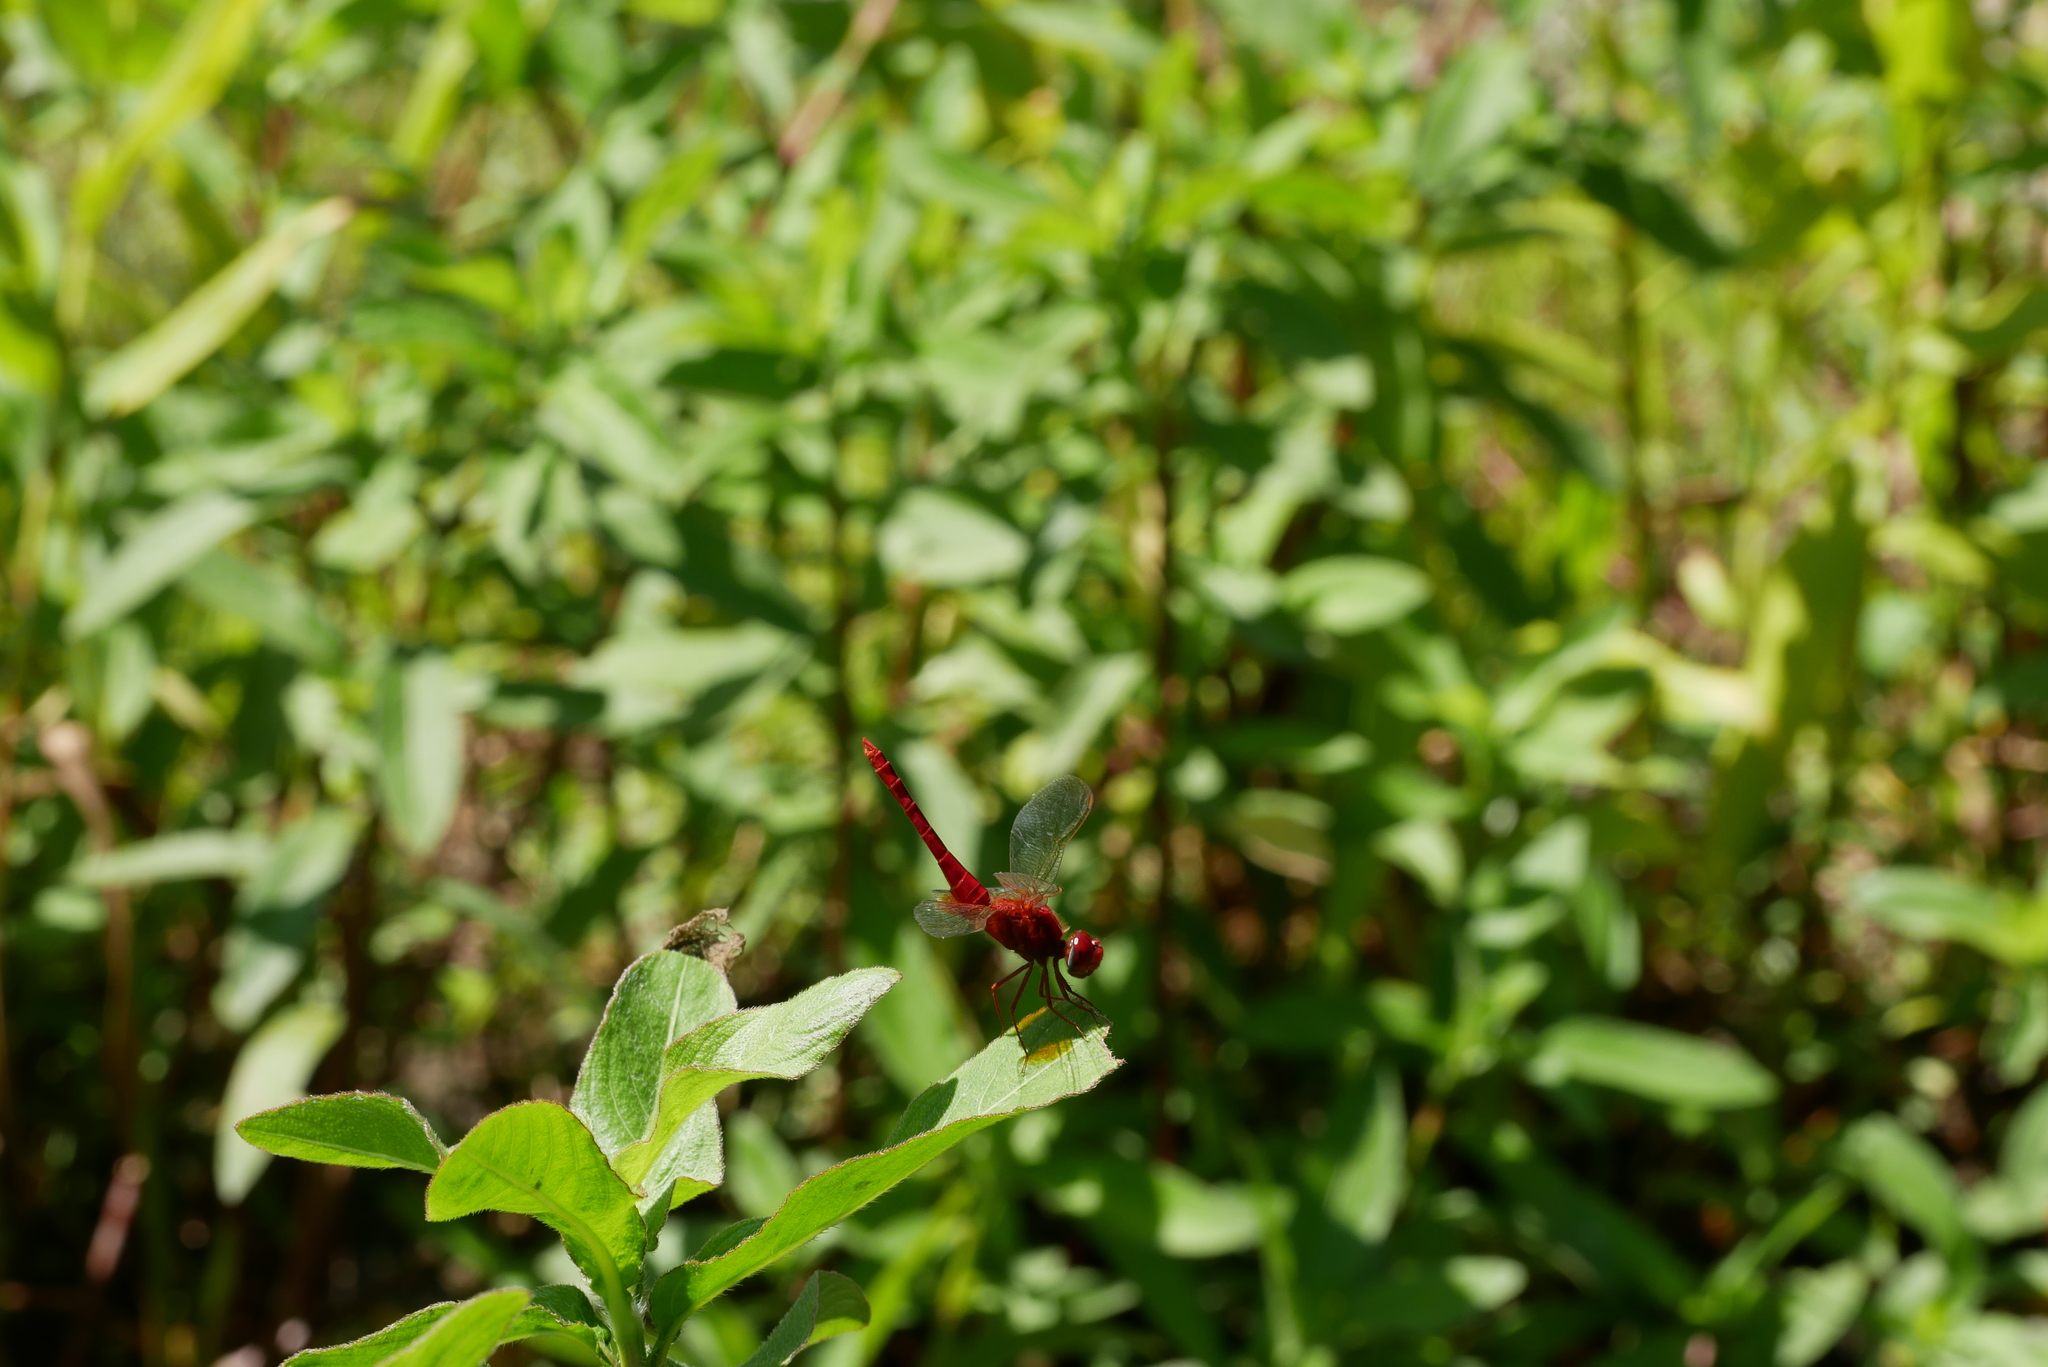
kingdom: Animalia
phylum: Arthropoda
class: Insecta
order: Odonata
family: Libellulidae
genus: Crocothemis
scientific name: Crocothemis servilia
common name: Scarlet skimmer
